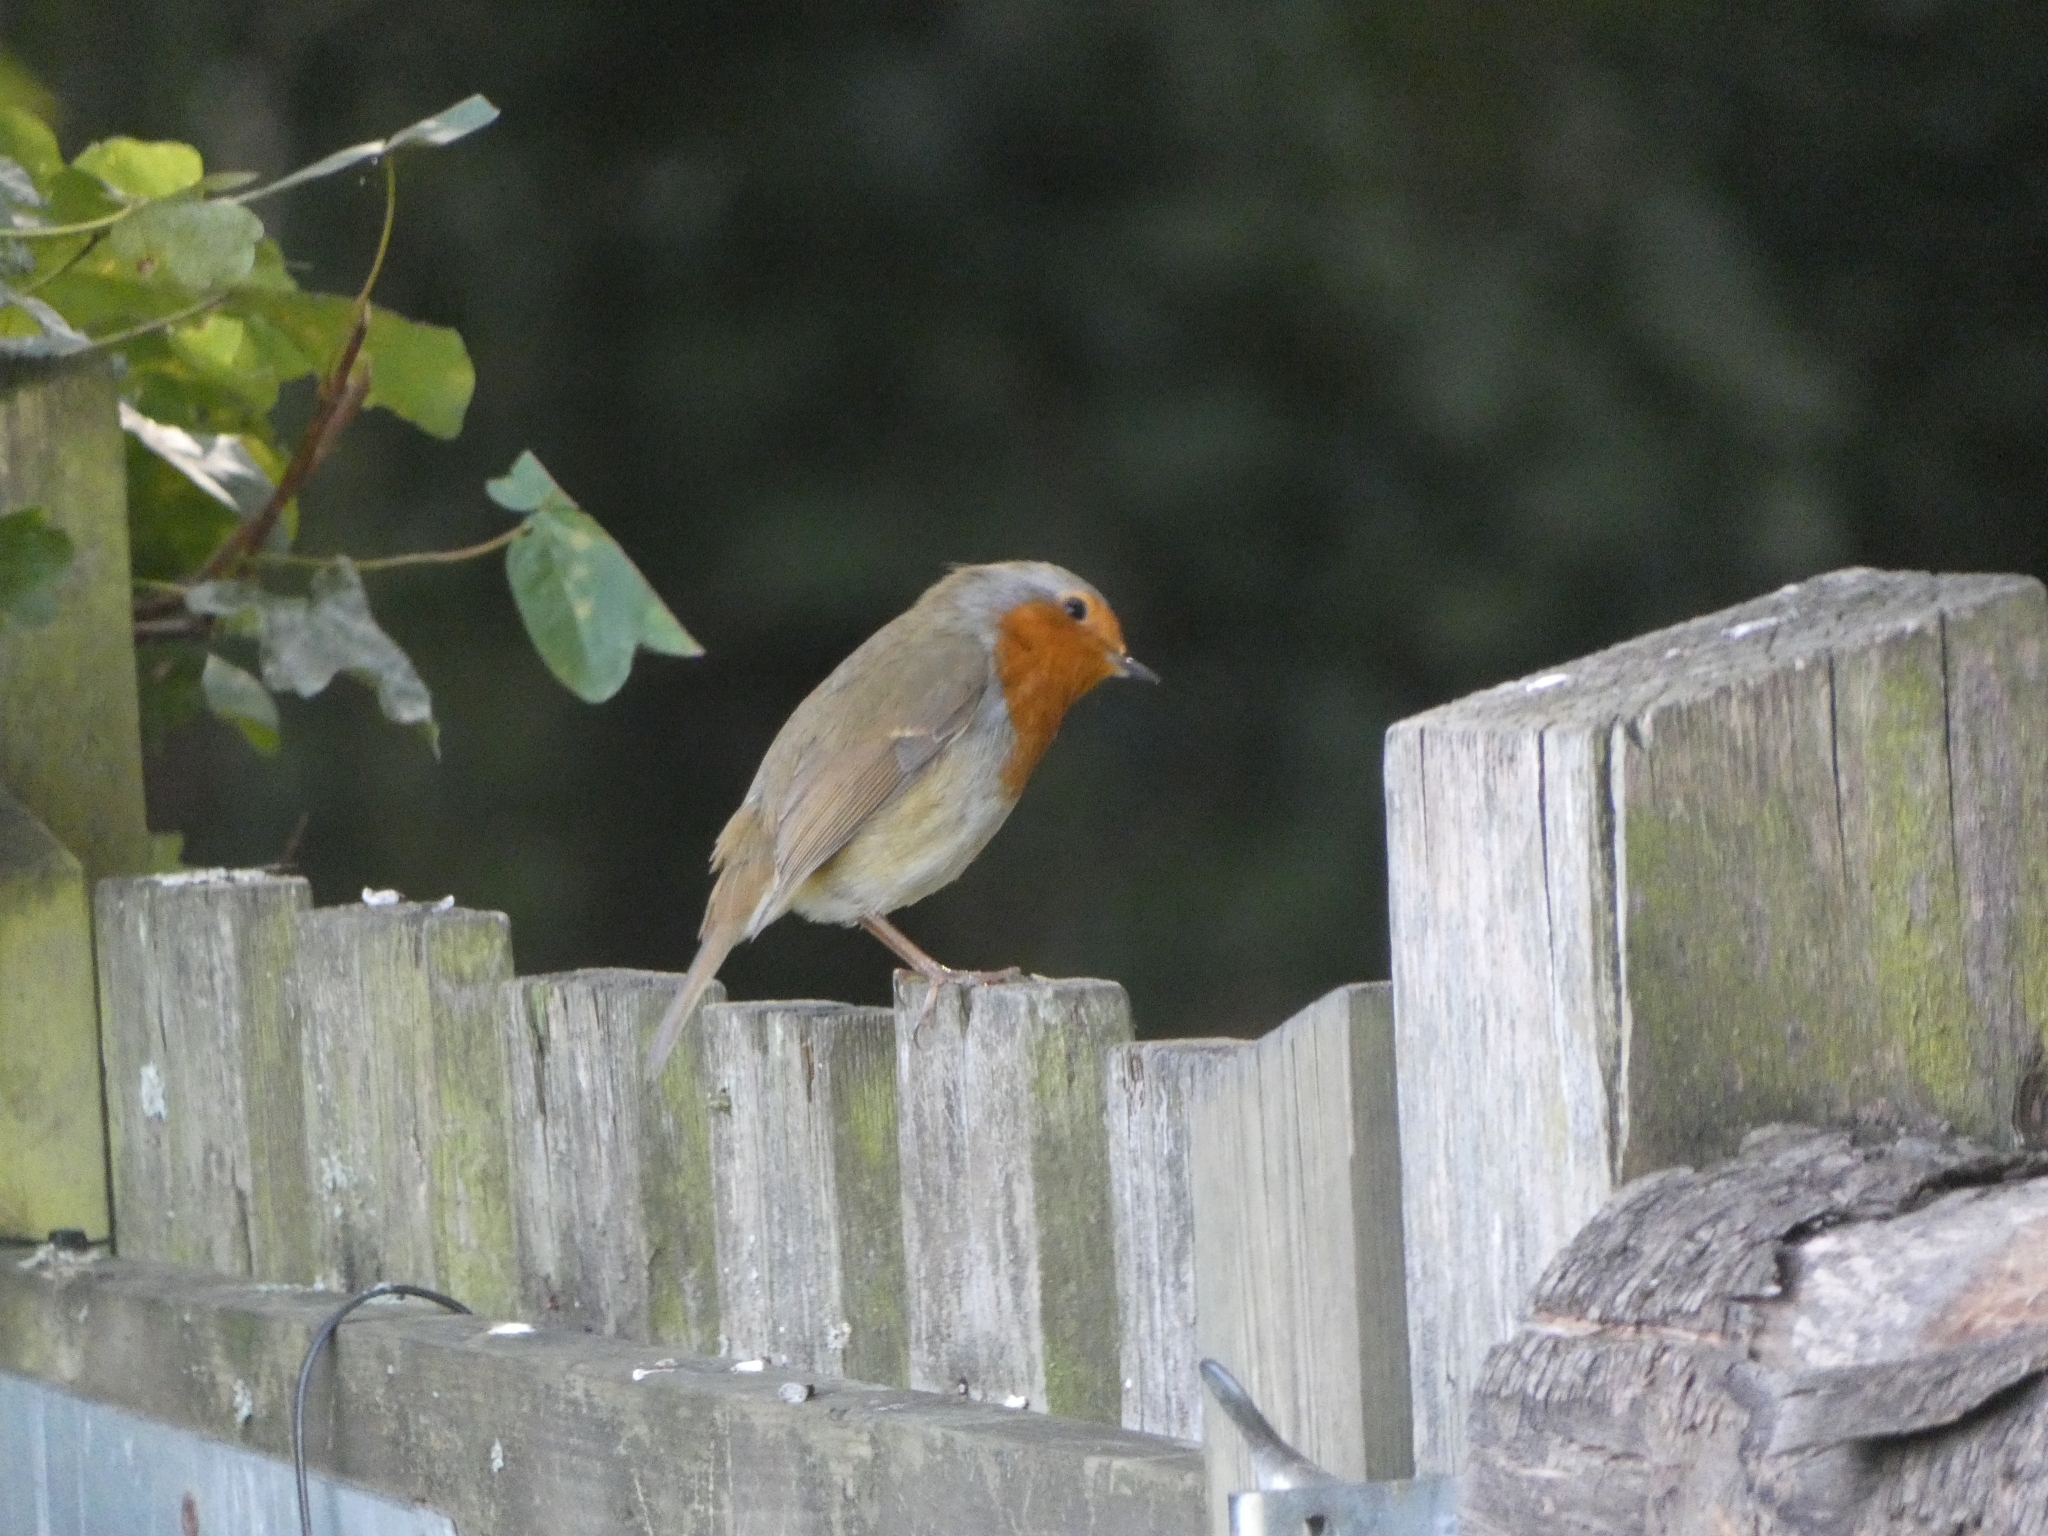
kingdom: Animalia
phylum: Chordata
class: Aves
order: Passeriformes
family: Muscicapidae
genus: Erithacus
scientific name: Erithacus rubecula
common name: European robin
